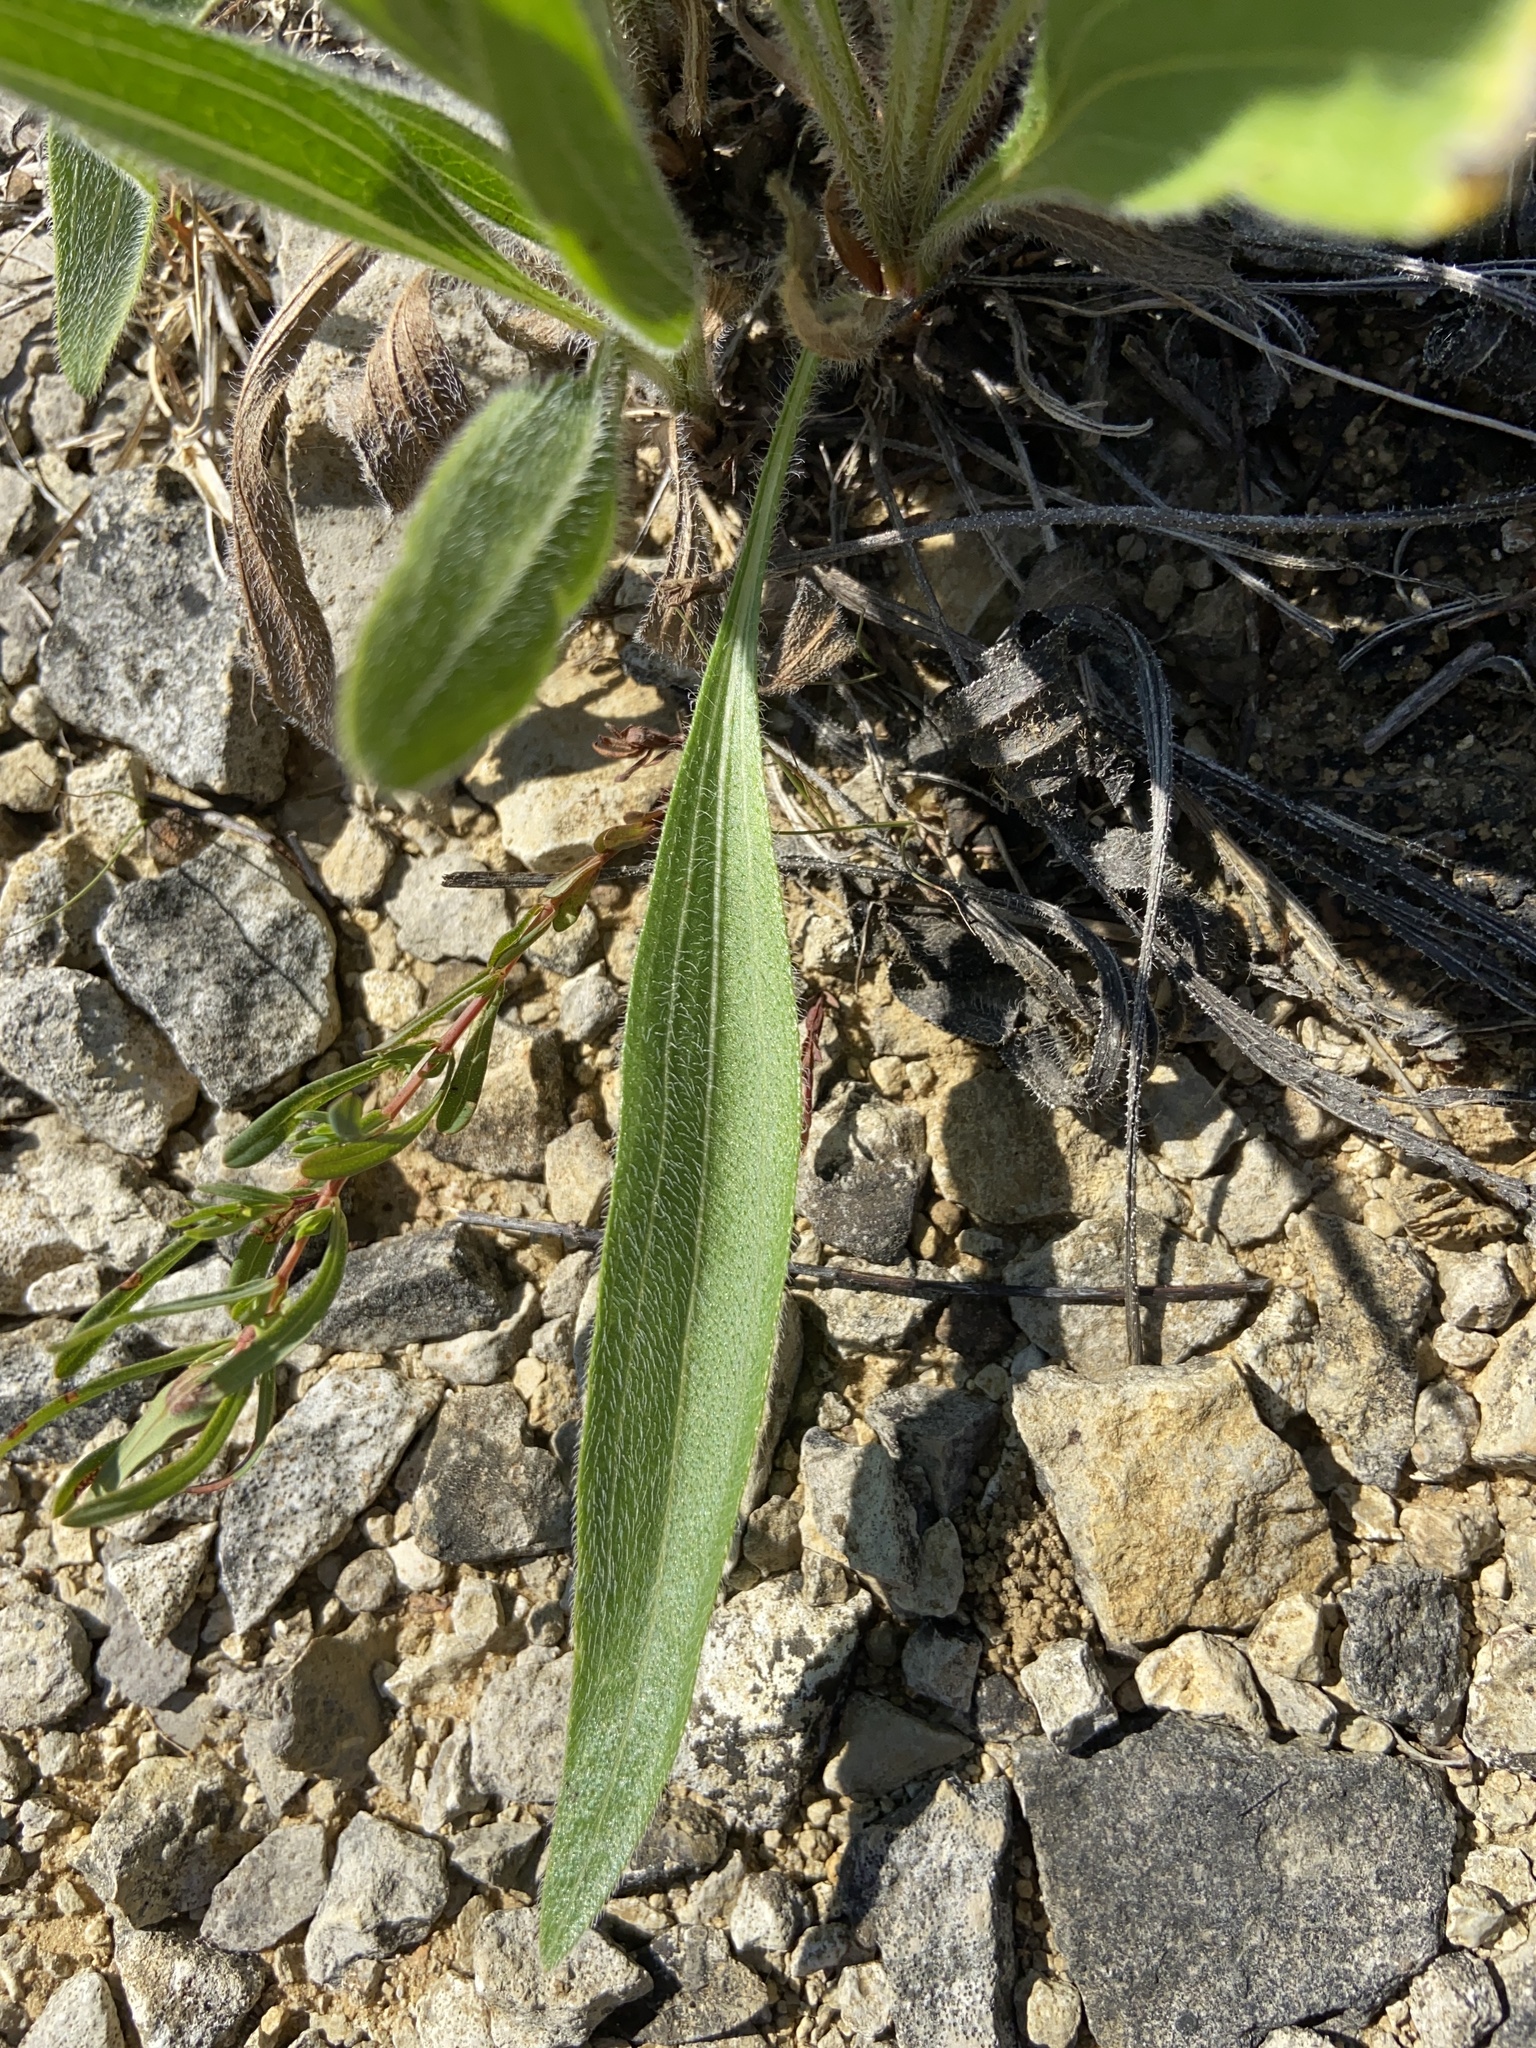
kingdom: Plantae
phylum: Tracheophyta
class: Magnoliopsida
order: Asterales
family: Asteraceae
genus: Echinacea
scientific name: Echinacea simulata
